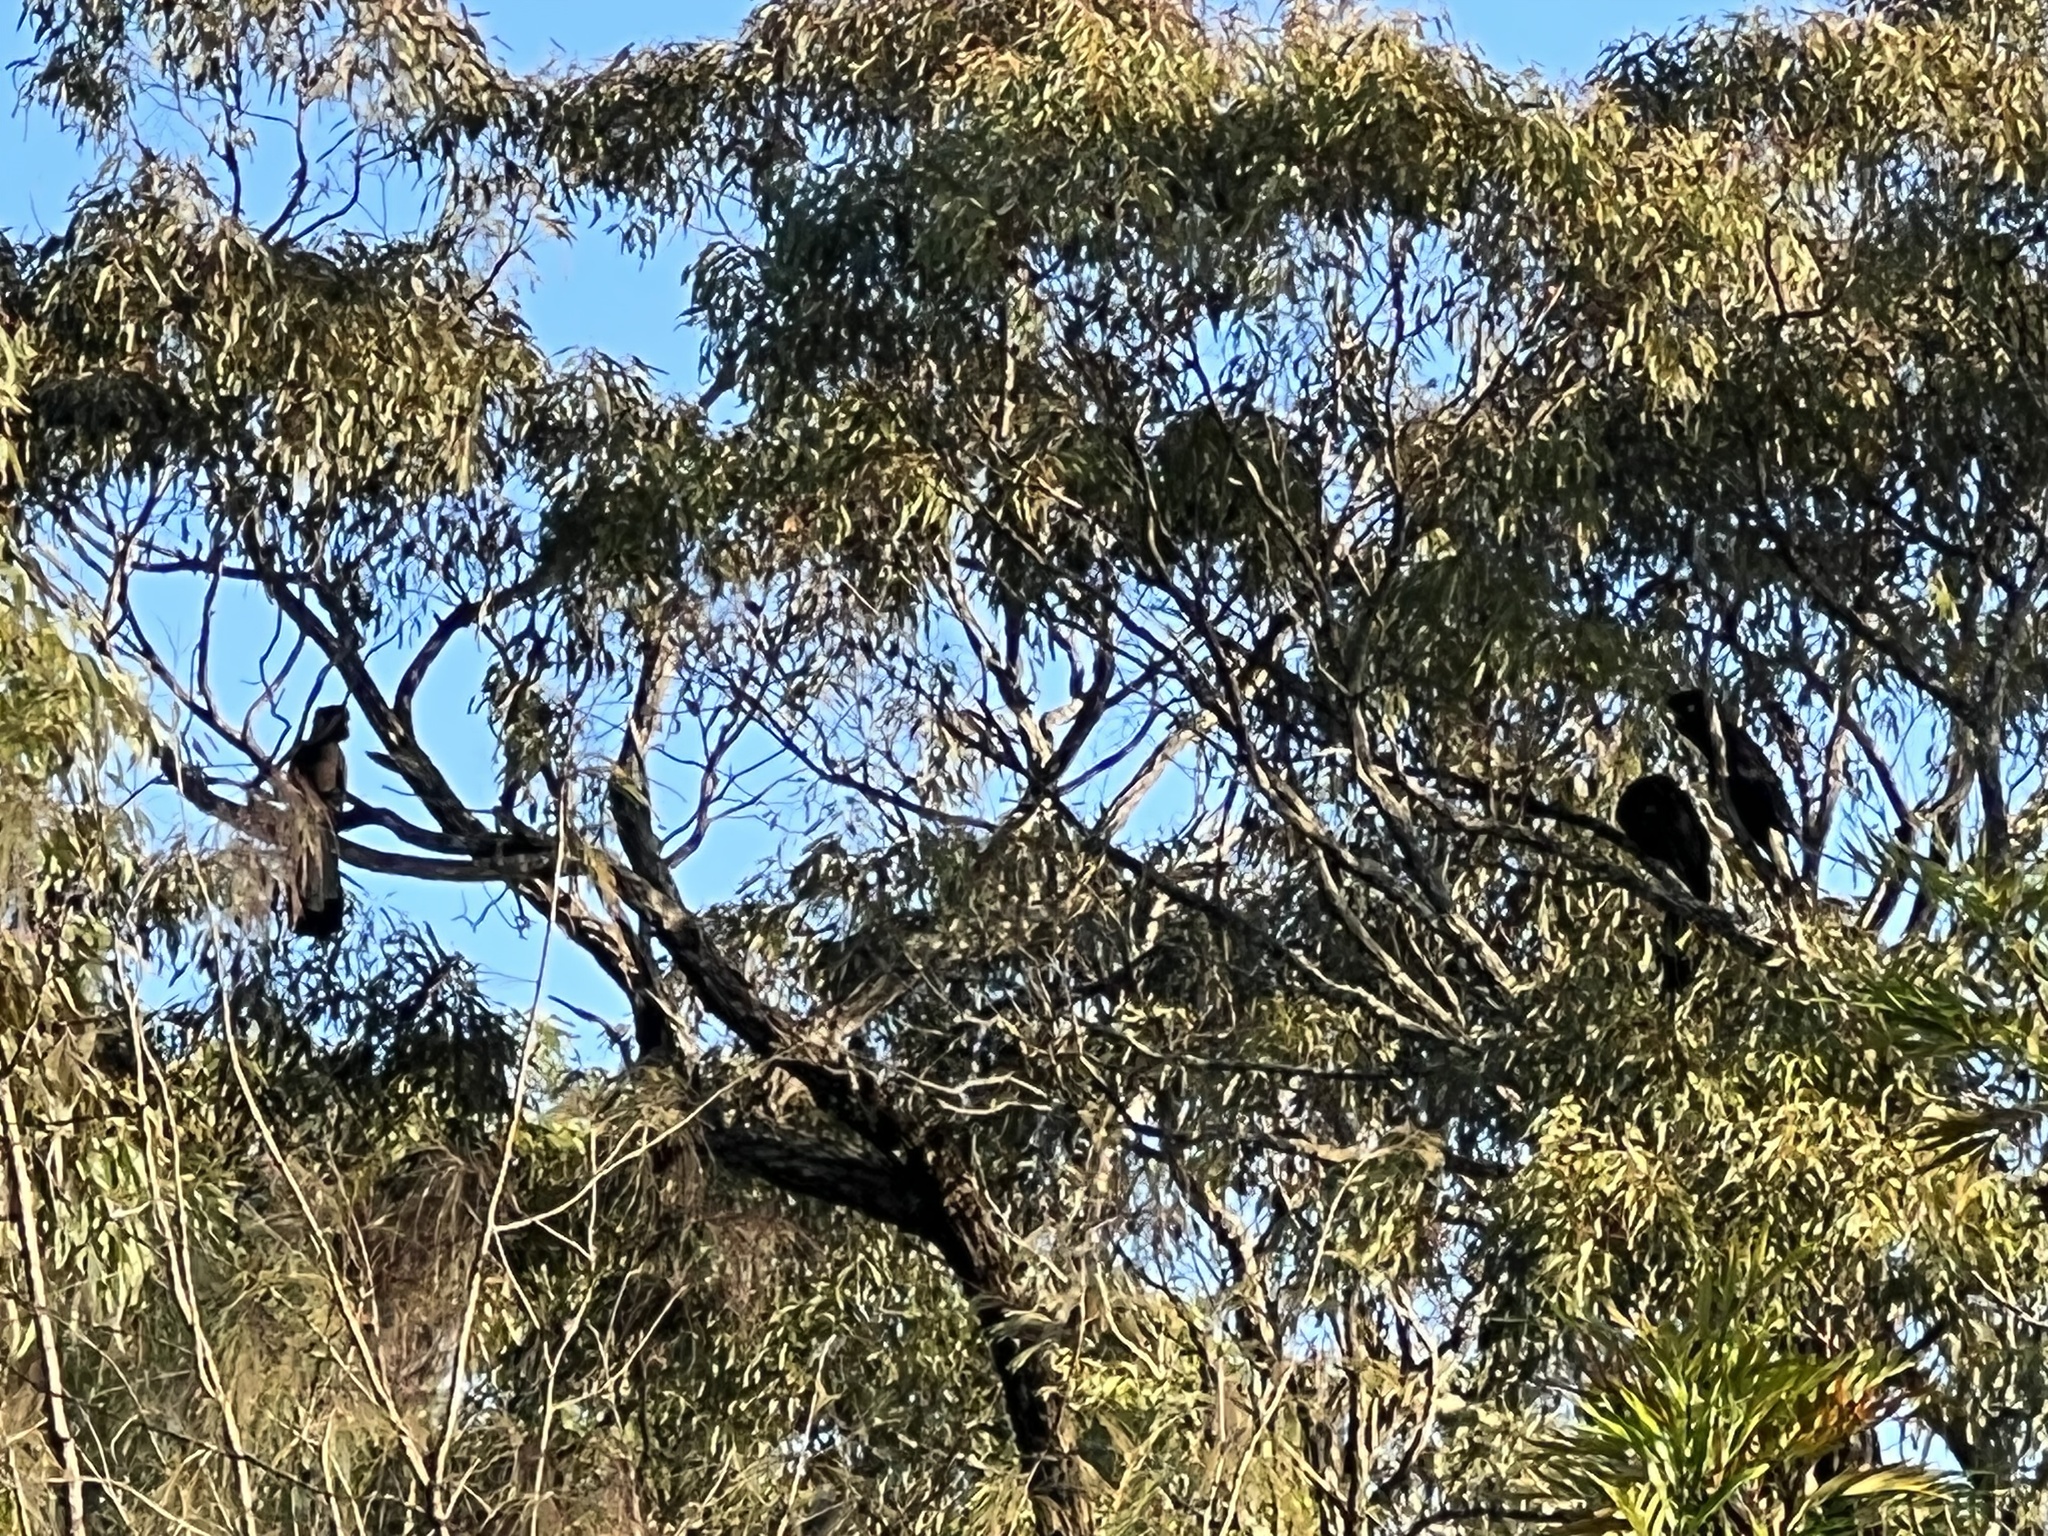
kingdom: Animalia
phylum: Chordata
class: Aves
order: Psittaciformes
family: Cacatuidae
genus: Zanda
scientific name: Zanda funerea
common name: Yellow-tailed black-cockatoo
